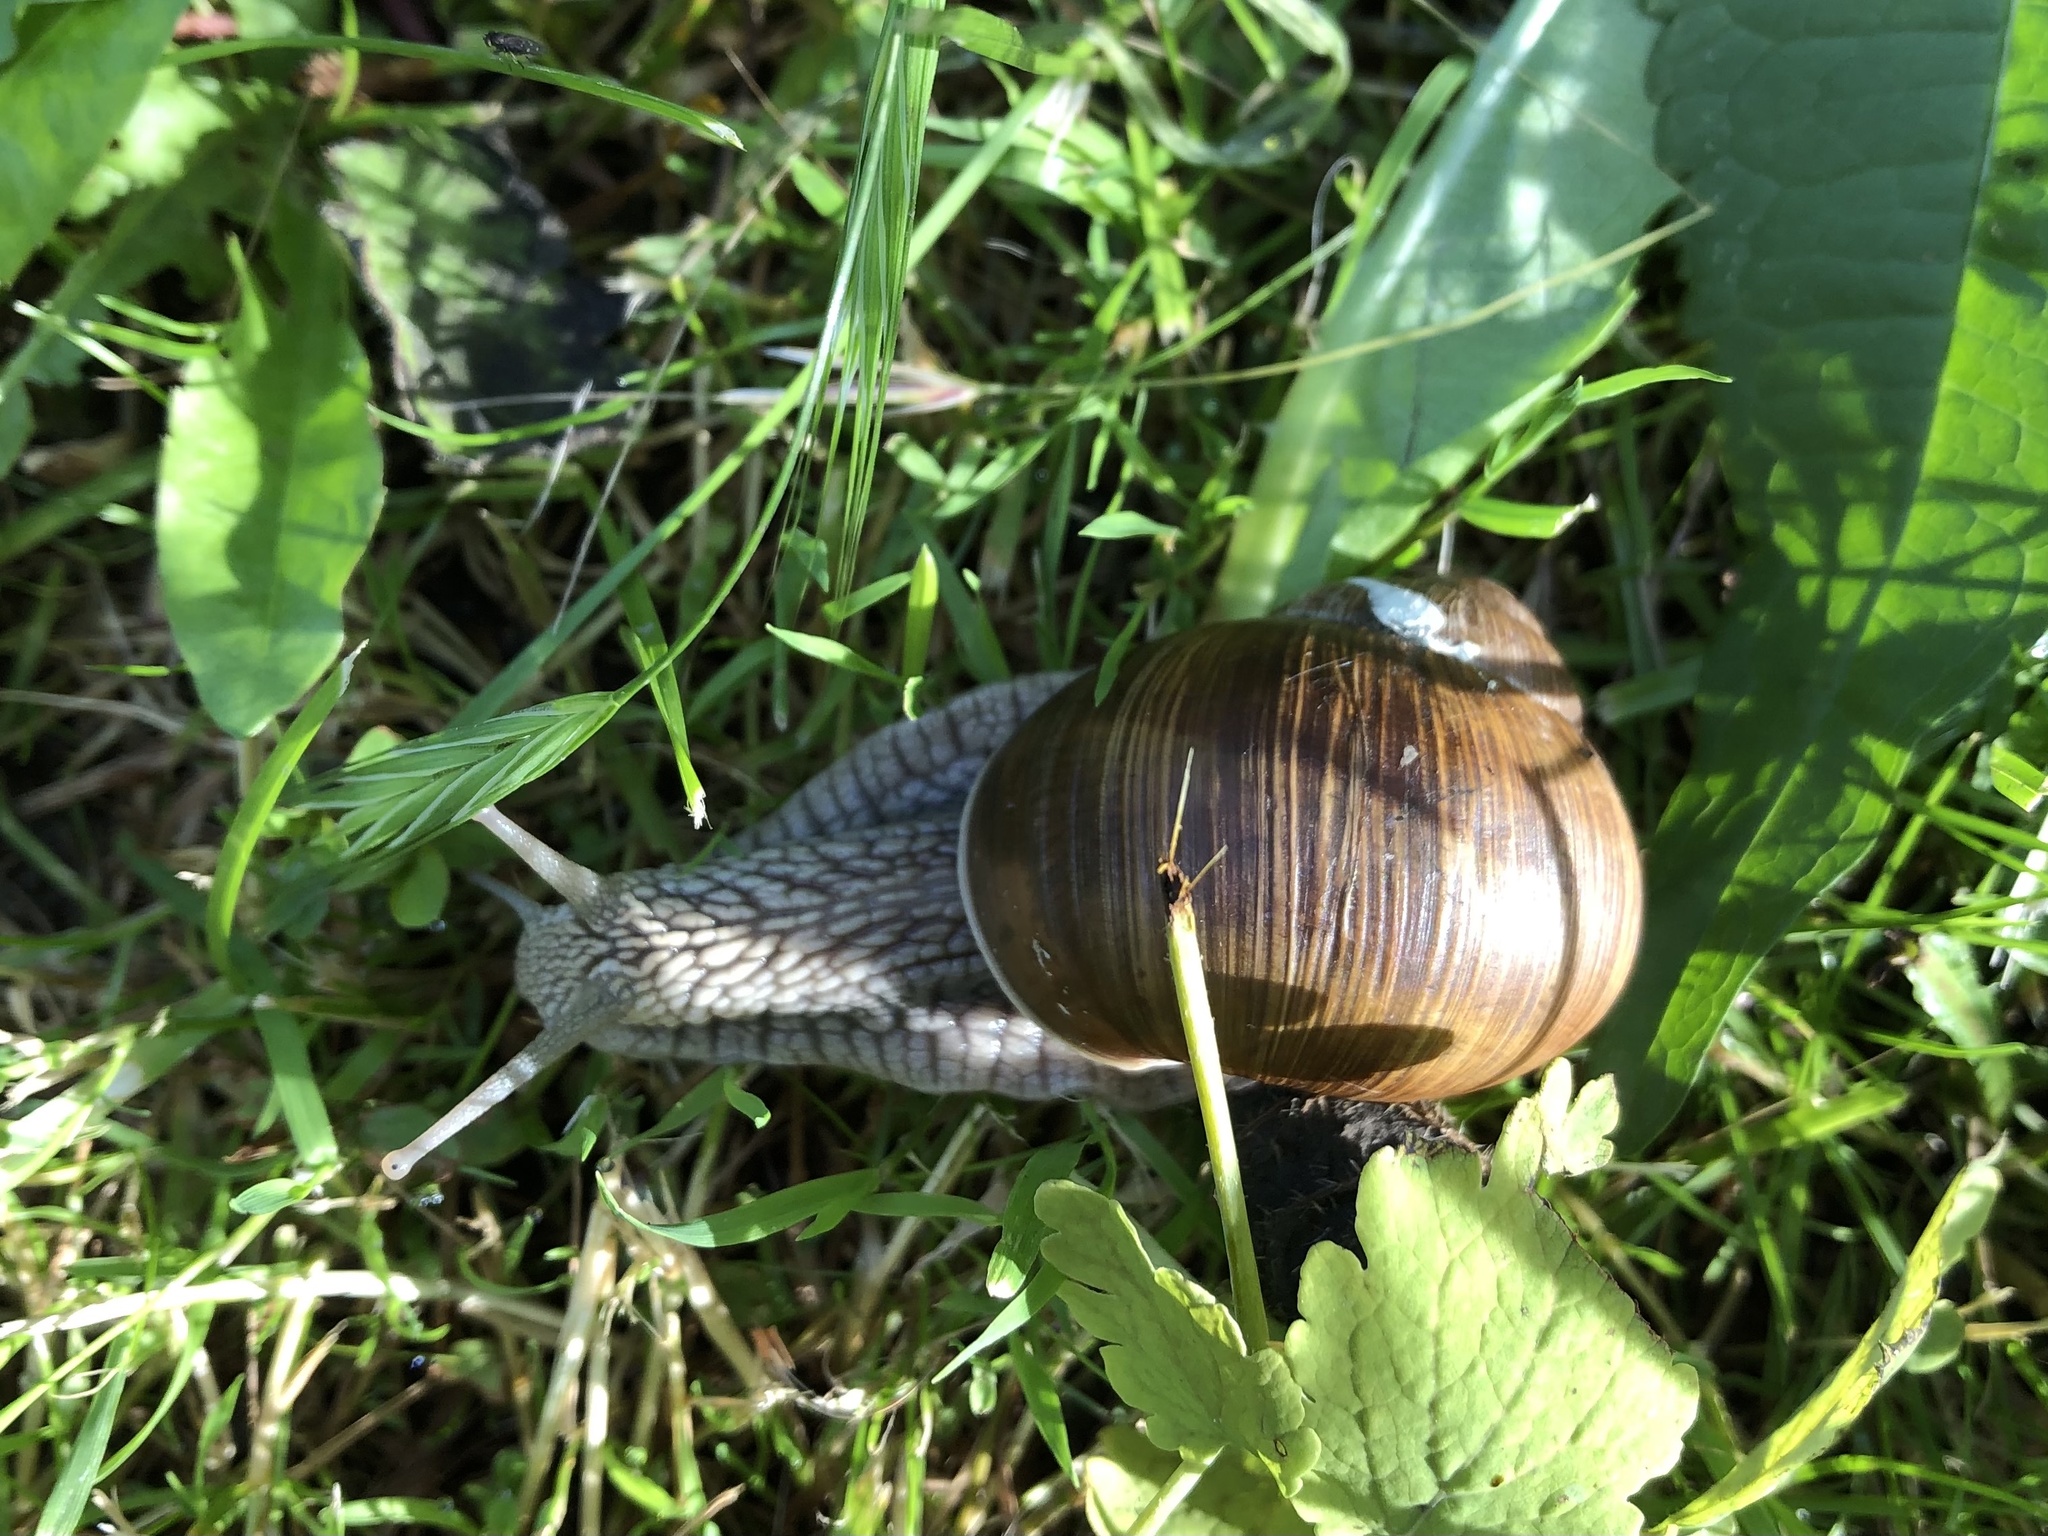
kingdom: Animalia
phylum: Mollusca
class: Gastropoda
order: Stylommatophora
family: Helicidae
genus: Helix
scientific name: Helix pomatia
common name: Roman snail
